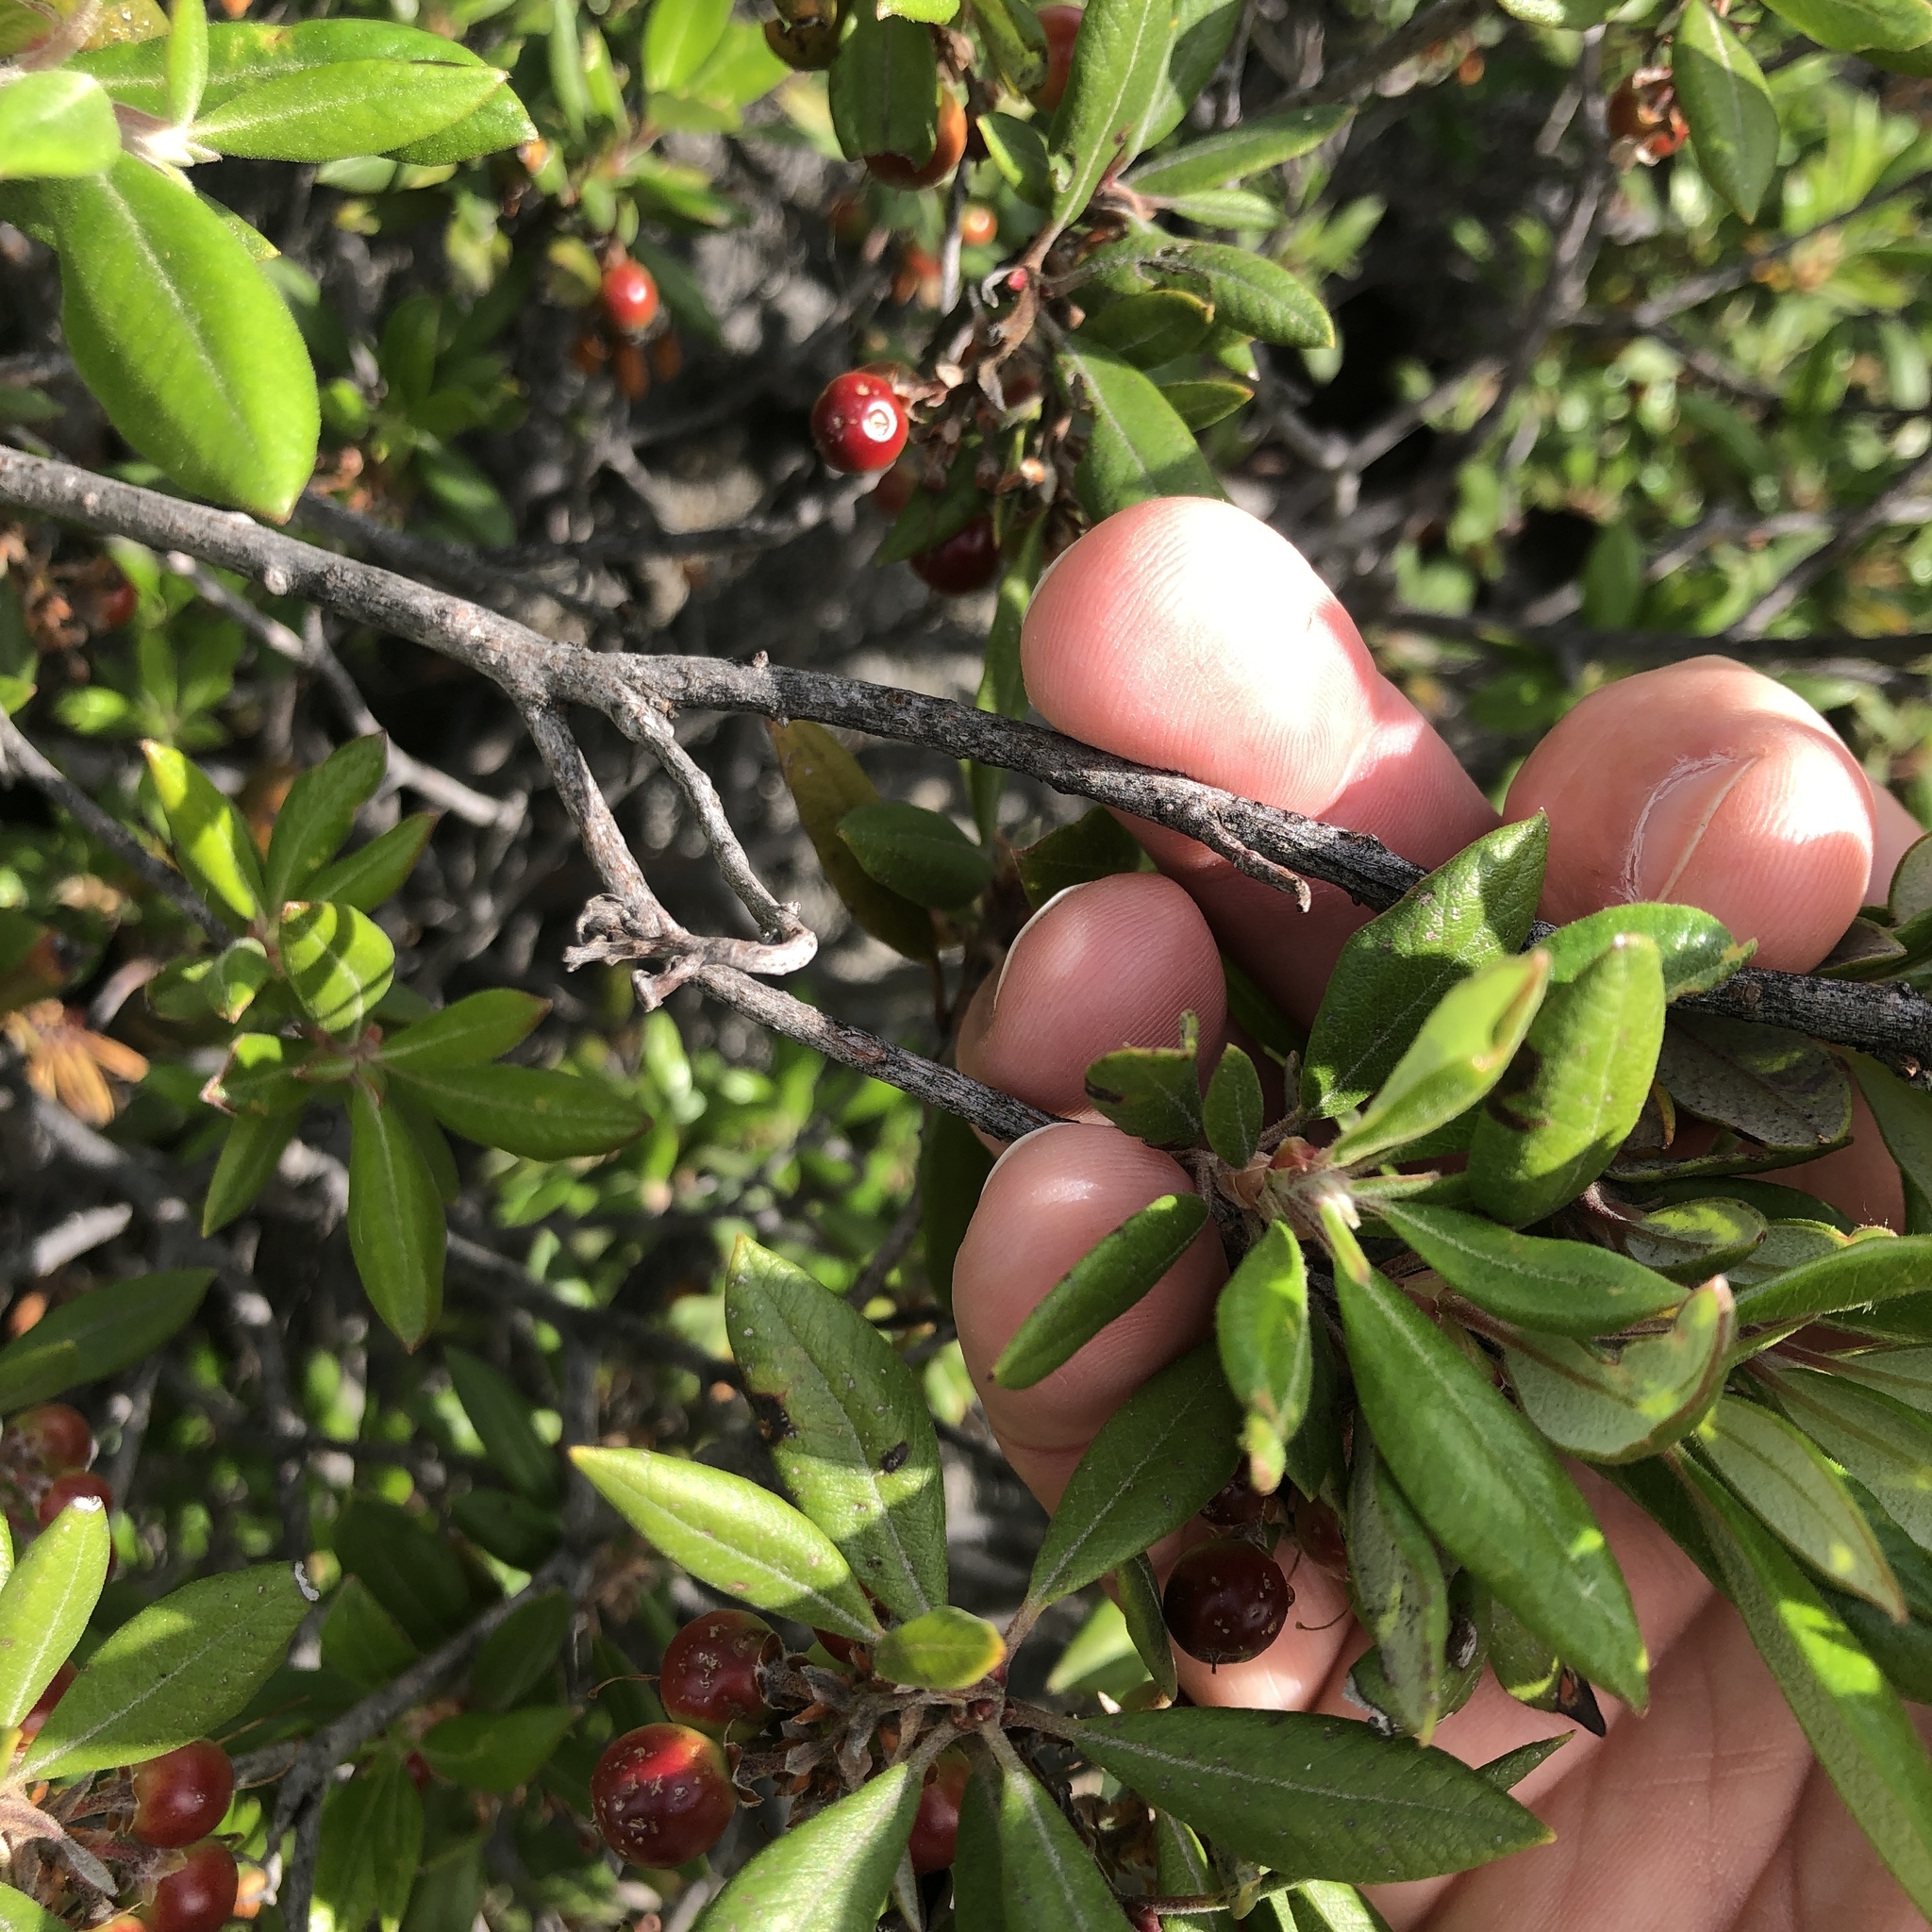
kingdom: Plantae
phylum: Tracheophyta
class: Magnoliopsida
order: Ericales
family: Ericaceae
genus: Arctostaphylos
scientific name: Arctostaphylos bicolor
